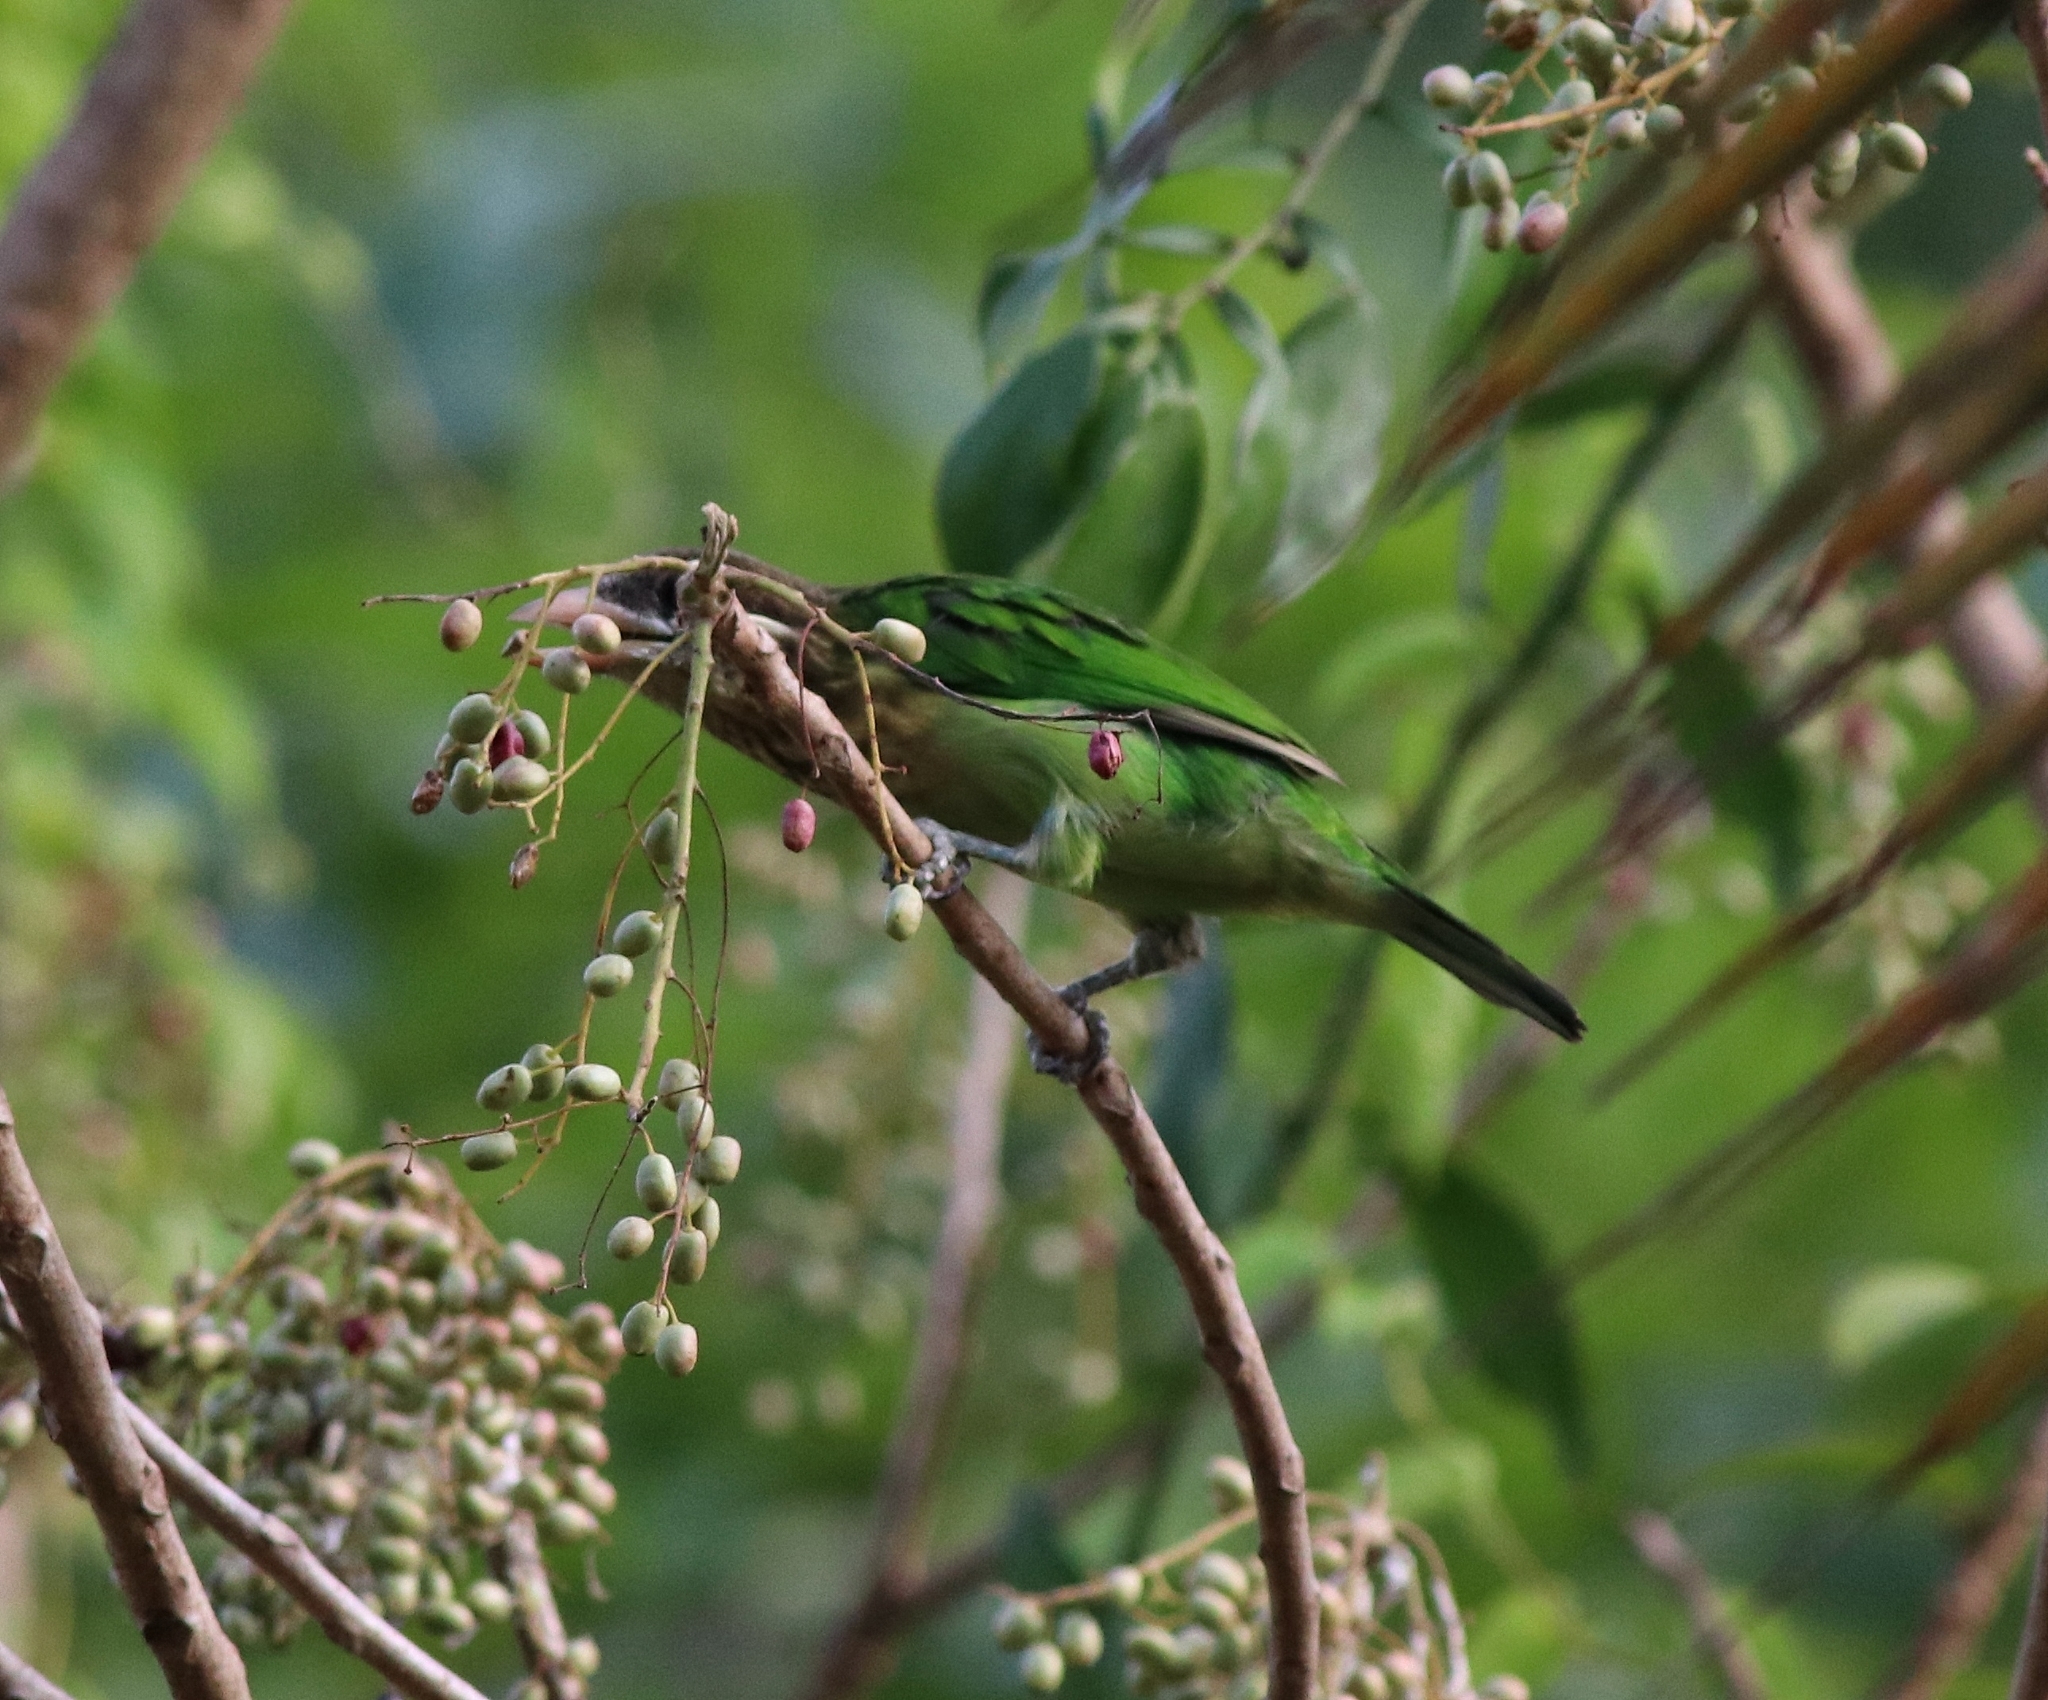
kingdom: Animalia
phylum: Chordata
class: Aves
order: Piciformes
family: Megalaimidae
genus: Psilopogon
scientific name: Psilopogon viridis
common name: White-cheeked barbet
